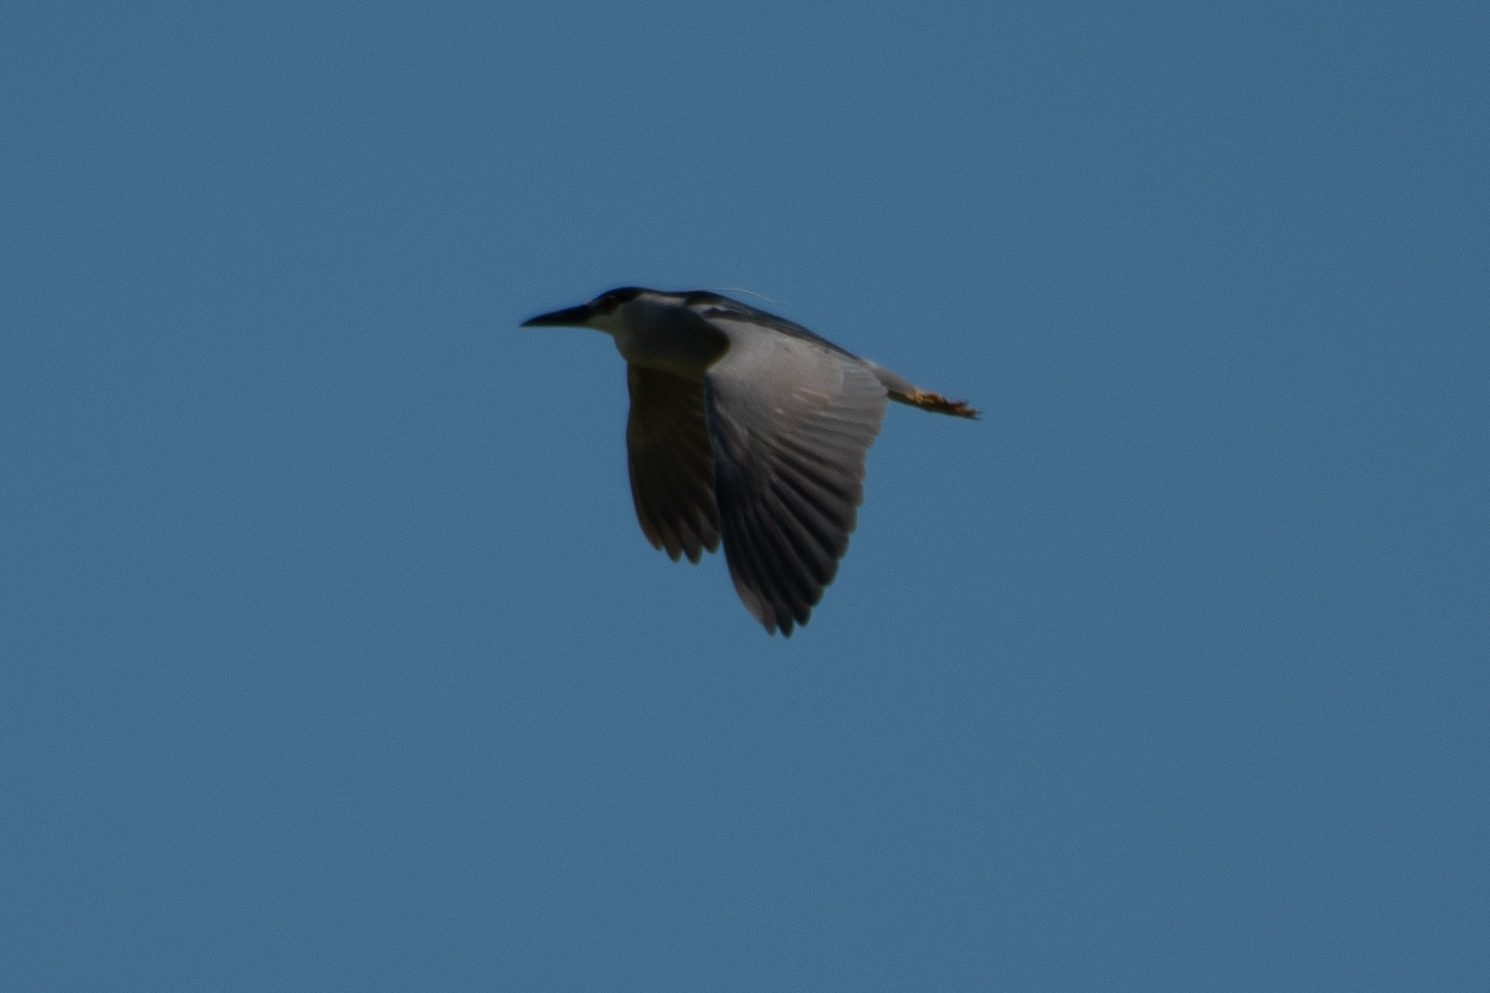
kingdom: Animalia
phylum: Chordata
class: Aves
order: Pelecaniformes
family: Ardeidae
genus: Nycticorax
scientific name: Nycticorax nycticorax
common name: Black-crowned night heron
